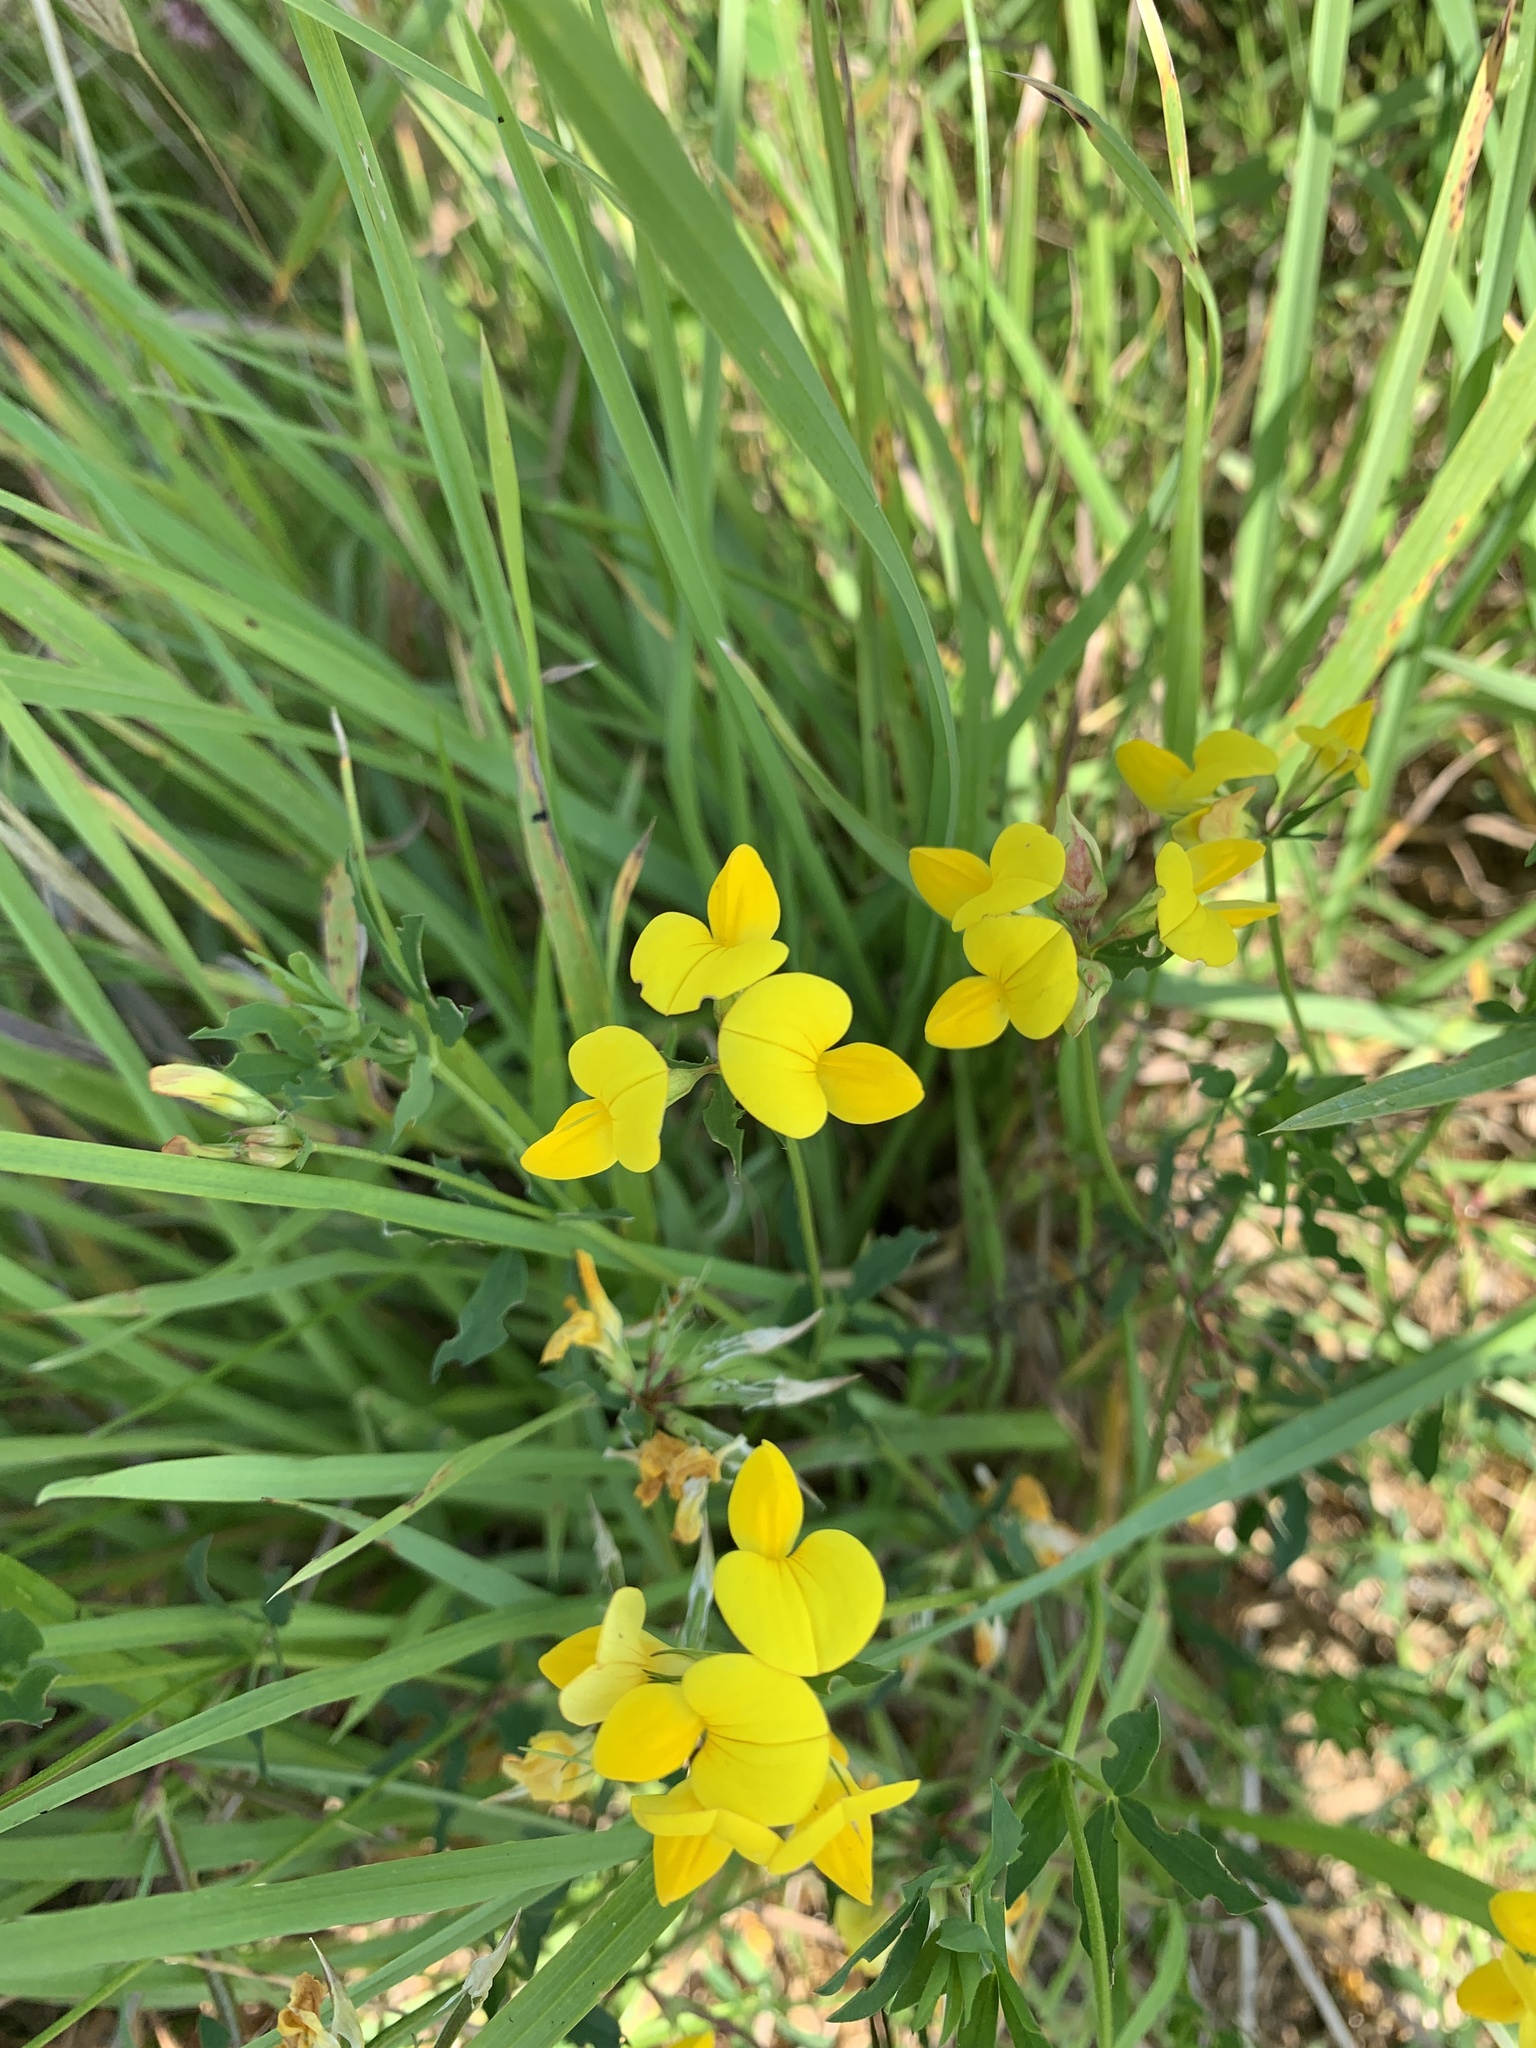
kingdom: Plantae
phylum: Tracheophyta
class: Magnoliopsida
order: Fabales
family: Fabaceae
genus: Lotus
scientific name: Lotus corniculatus
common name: Common bird's-foot-trefoil
